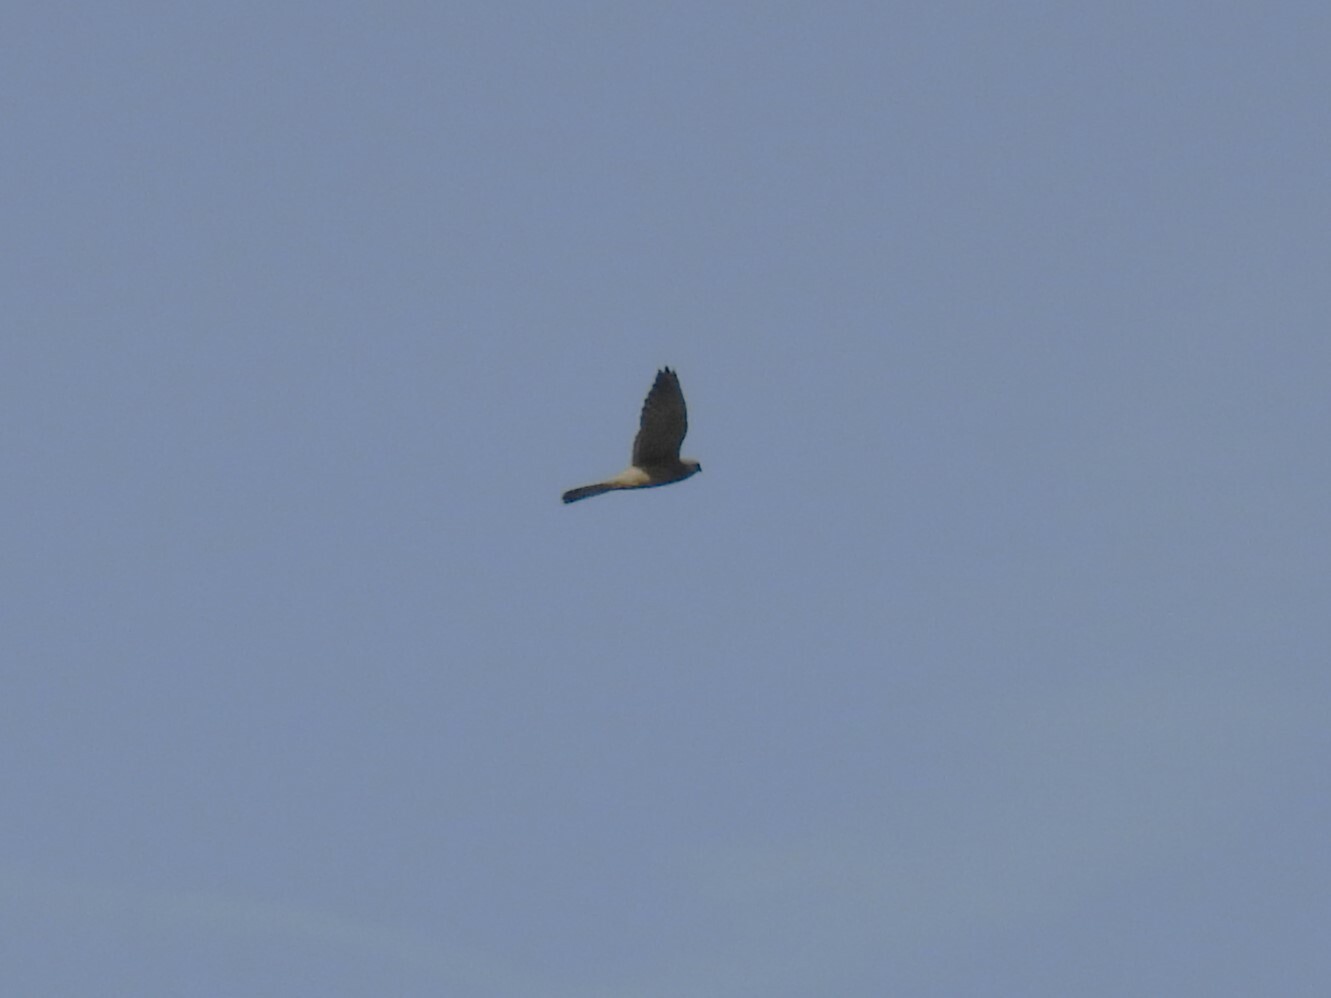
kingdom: Animalia
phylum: Chordata
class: Aves
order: Falconiformes
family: Falconidae
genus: Falco
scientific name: Falco tinnunculus
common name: Common kestrel
